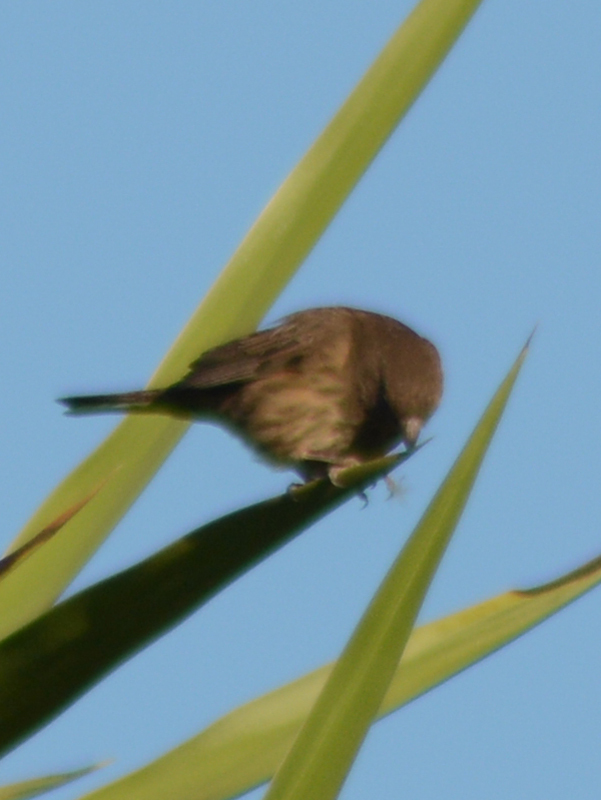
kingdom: Animalia
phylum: Chordata
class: Aves
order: Passeriformes
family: Fringillidae
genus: Haemorhous
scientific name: Haemorhous mexicanus
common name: House finch
